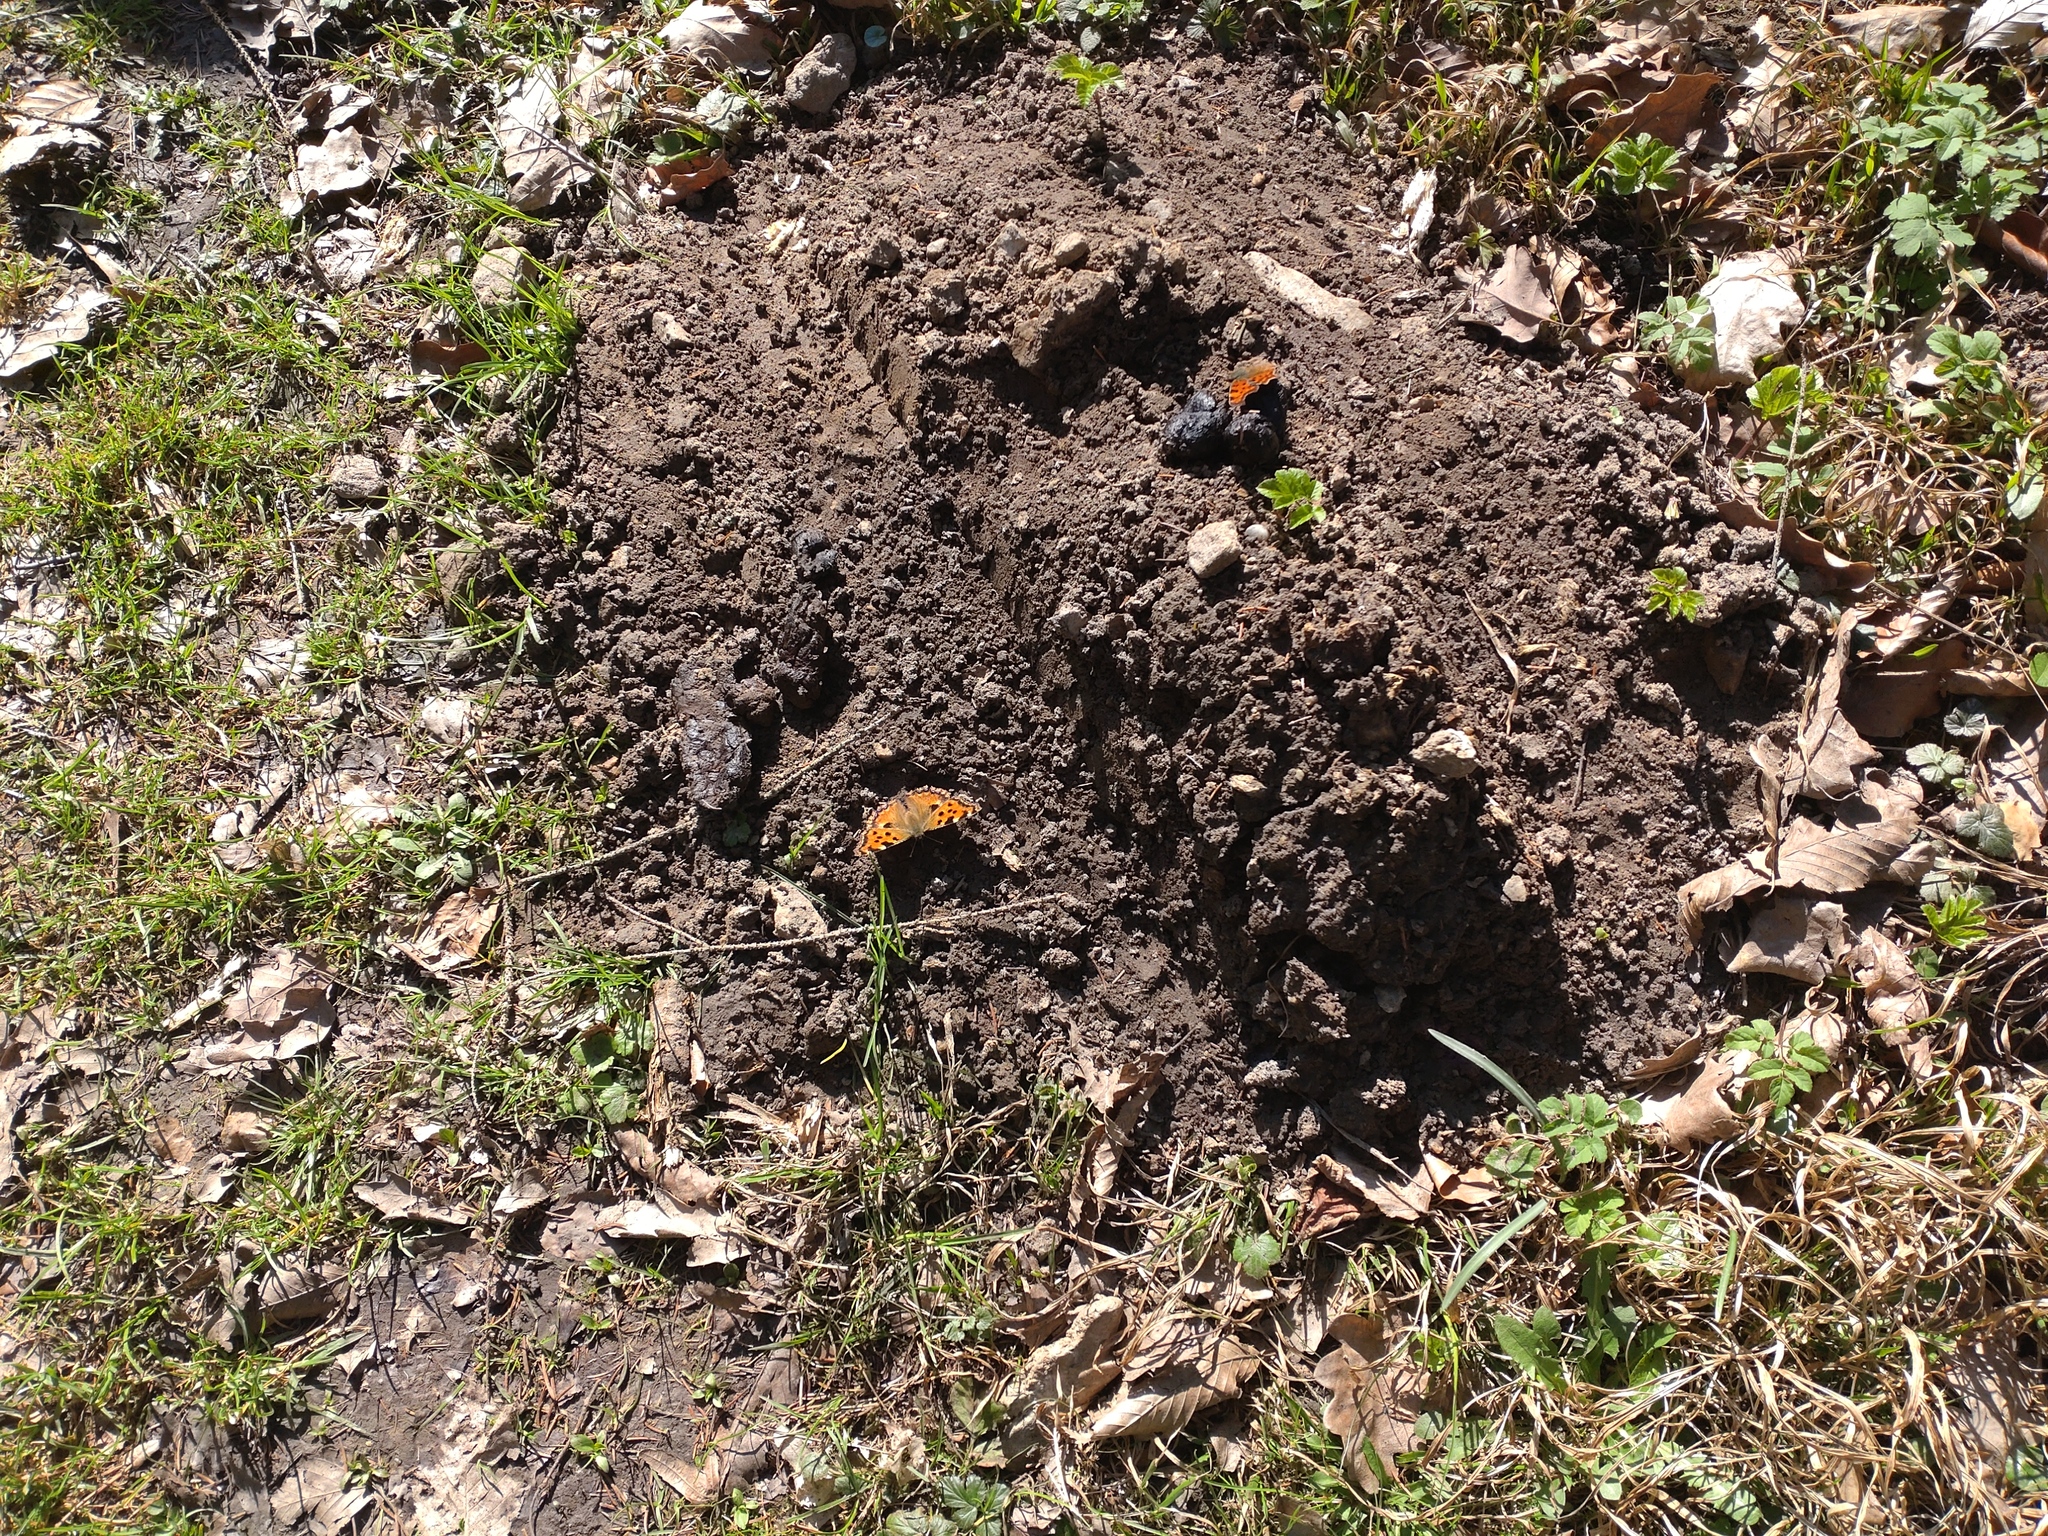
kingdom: Animalia
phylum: Arthropoda
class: Insecta
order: Lepidoptera
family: Nymphalidae
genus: Polygonia
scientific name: Polygonia c-album
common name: Comma
